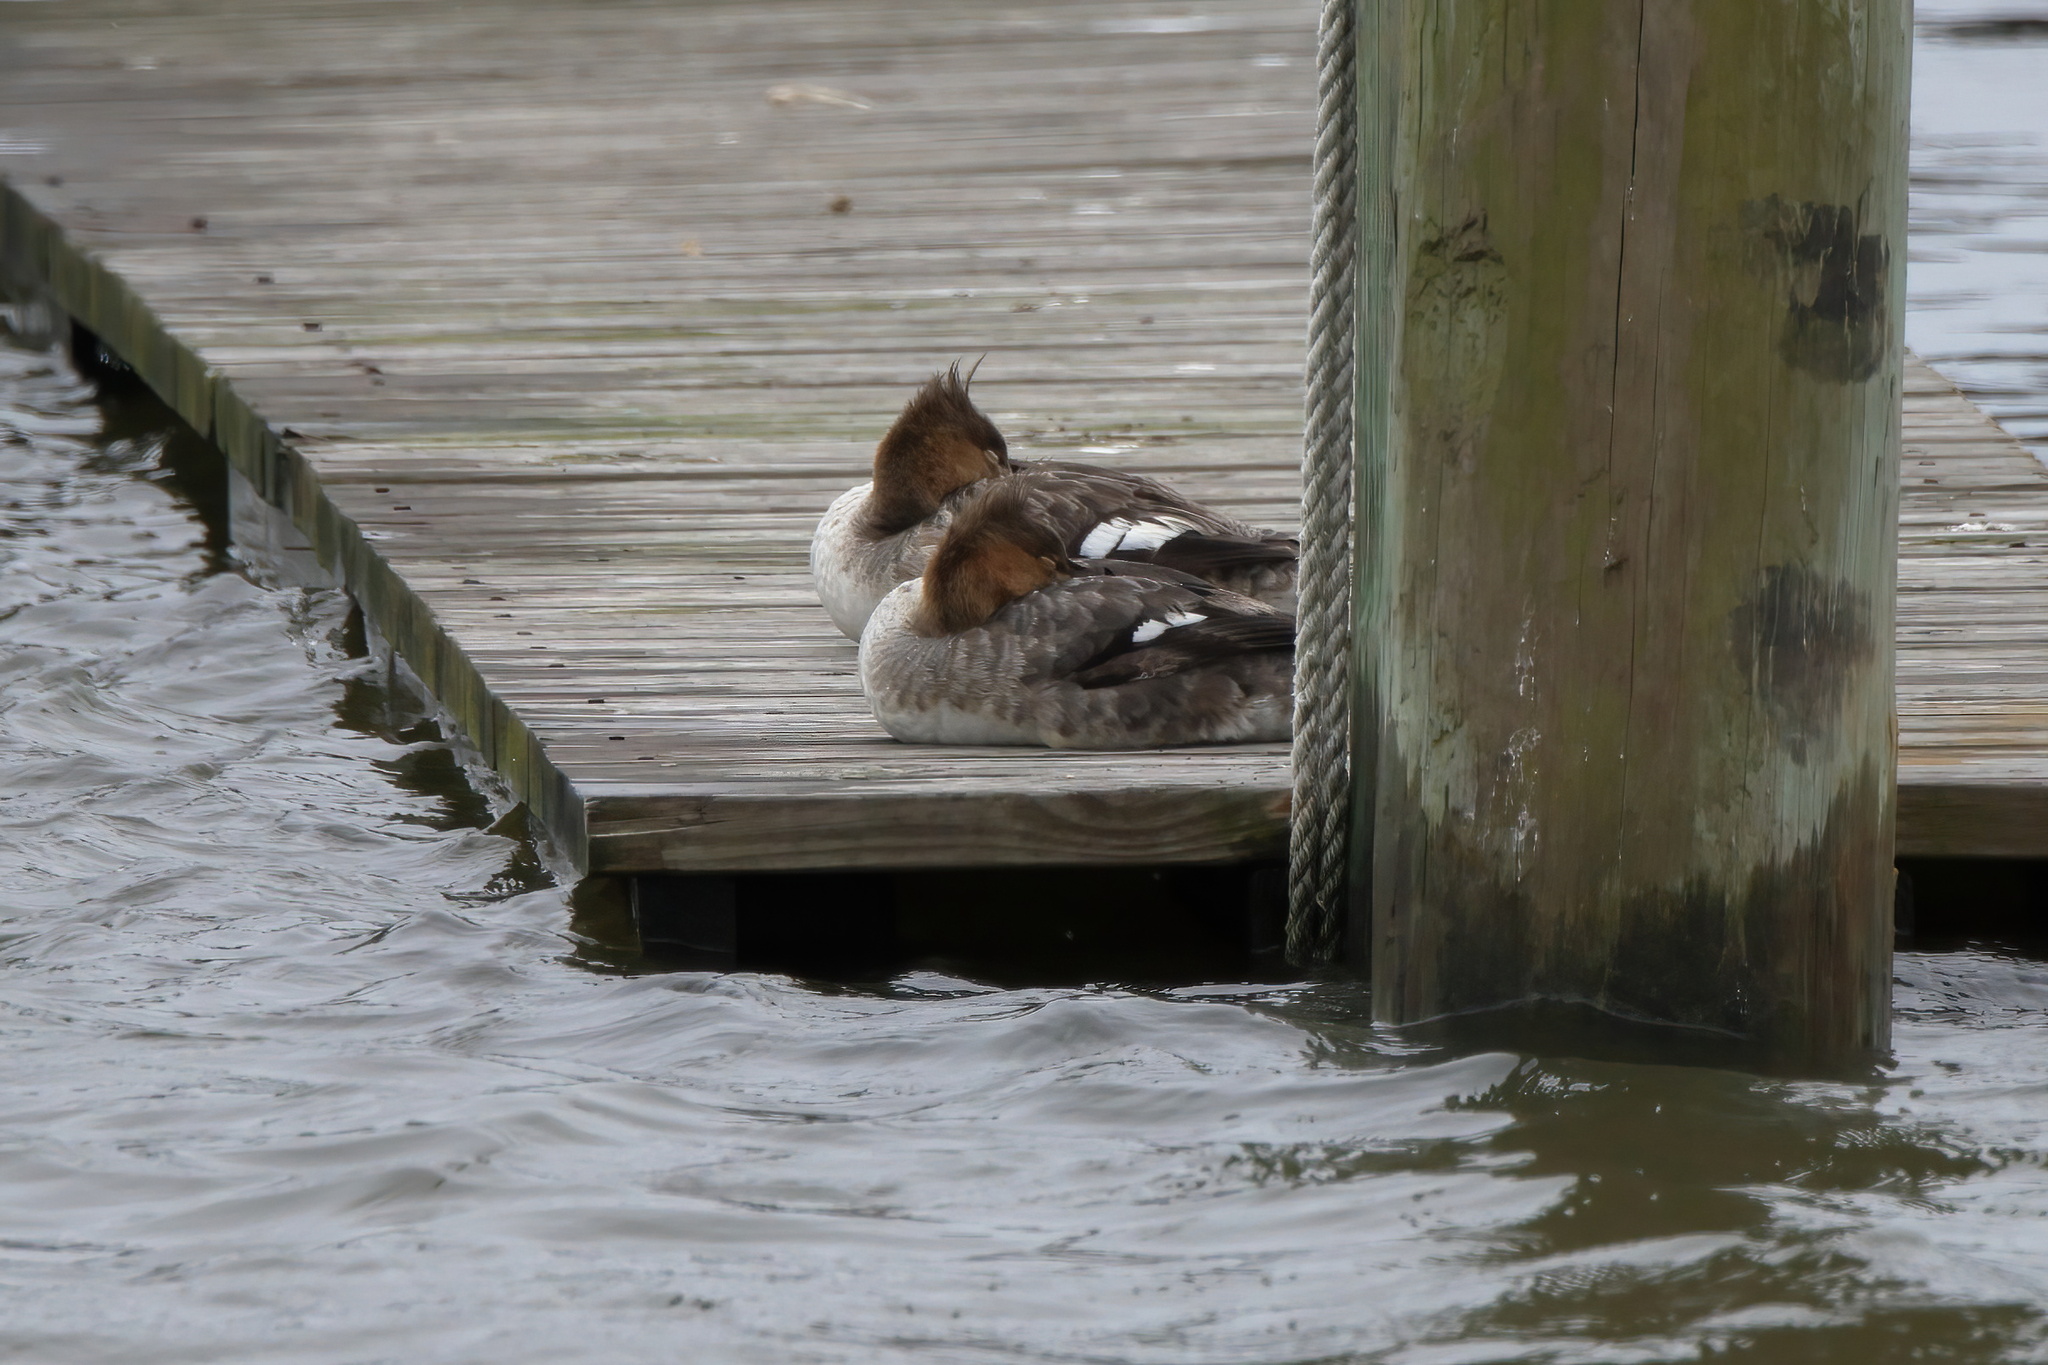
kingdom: Animalia
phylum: Chordata
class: Aves
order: Anseriformes
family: Anatidae
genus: Mergus
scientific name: Mergus serrator
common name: Red-breasted merganser
